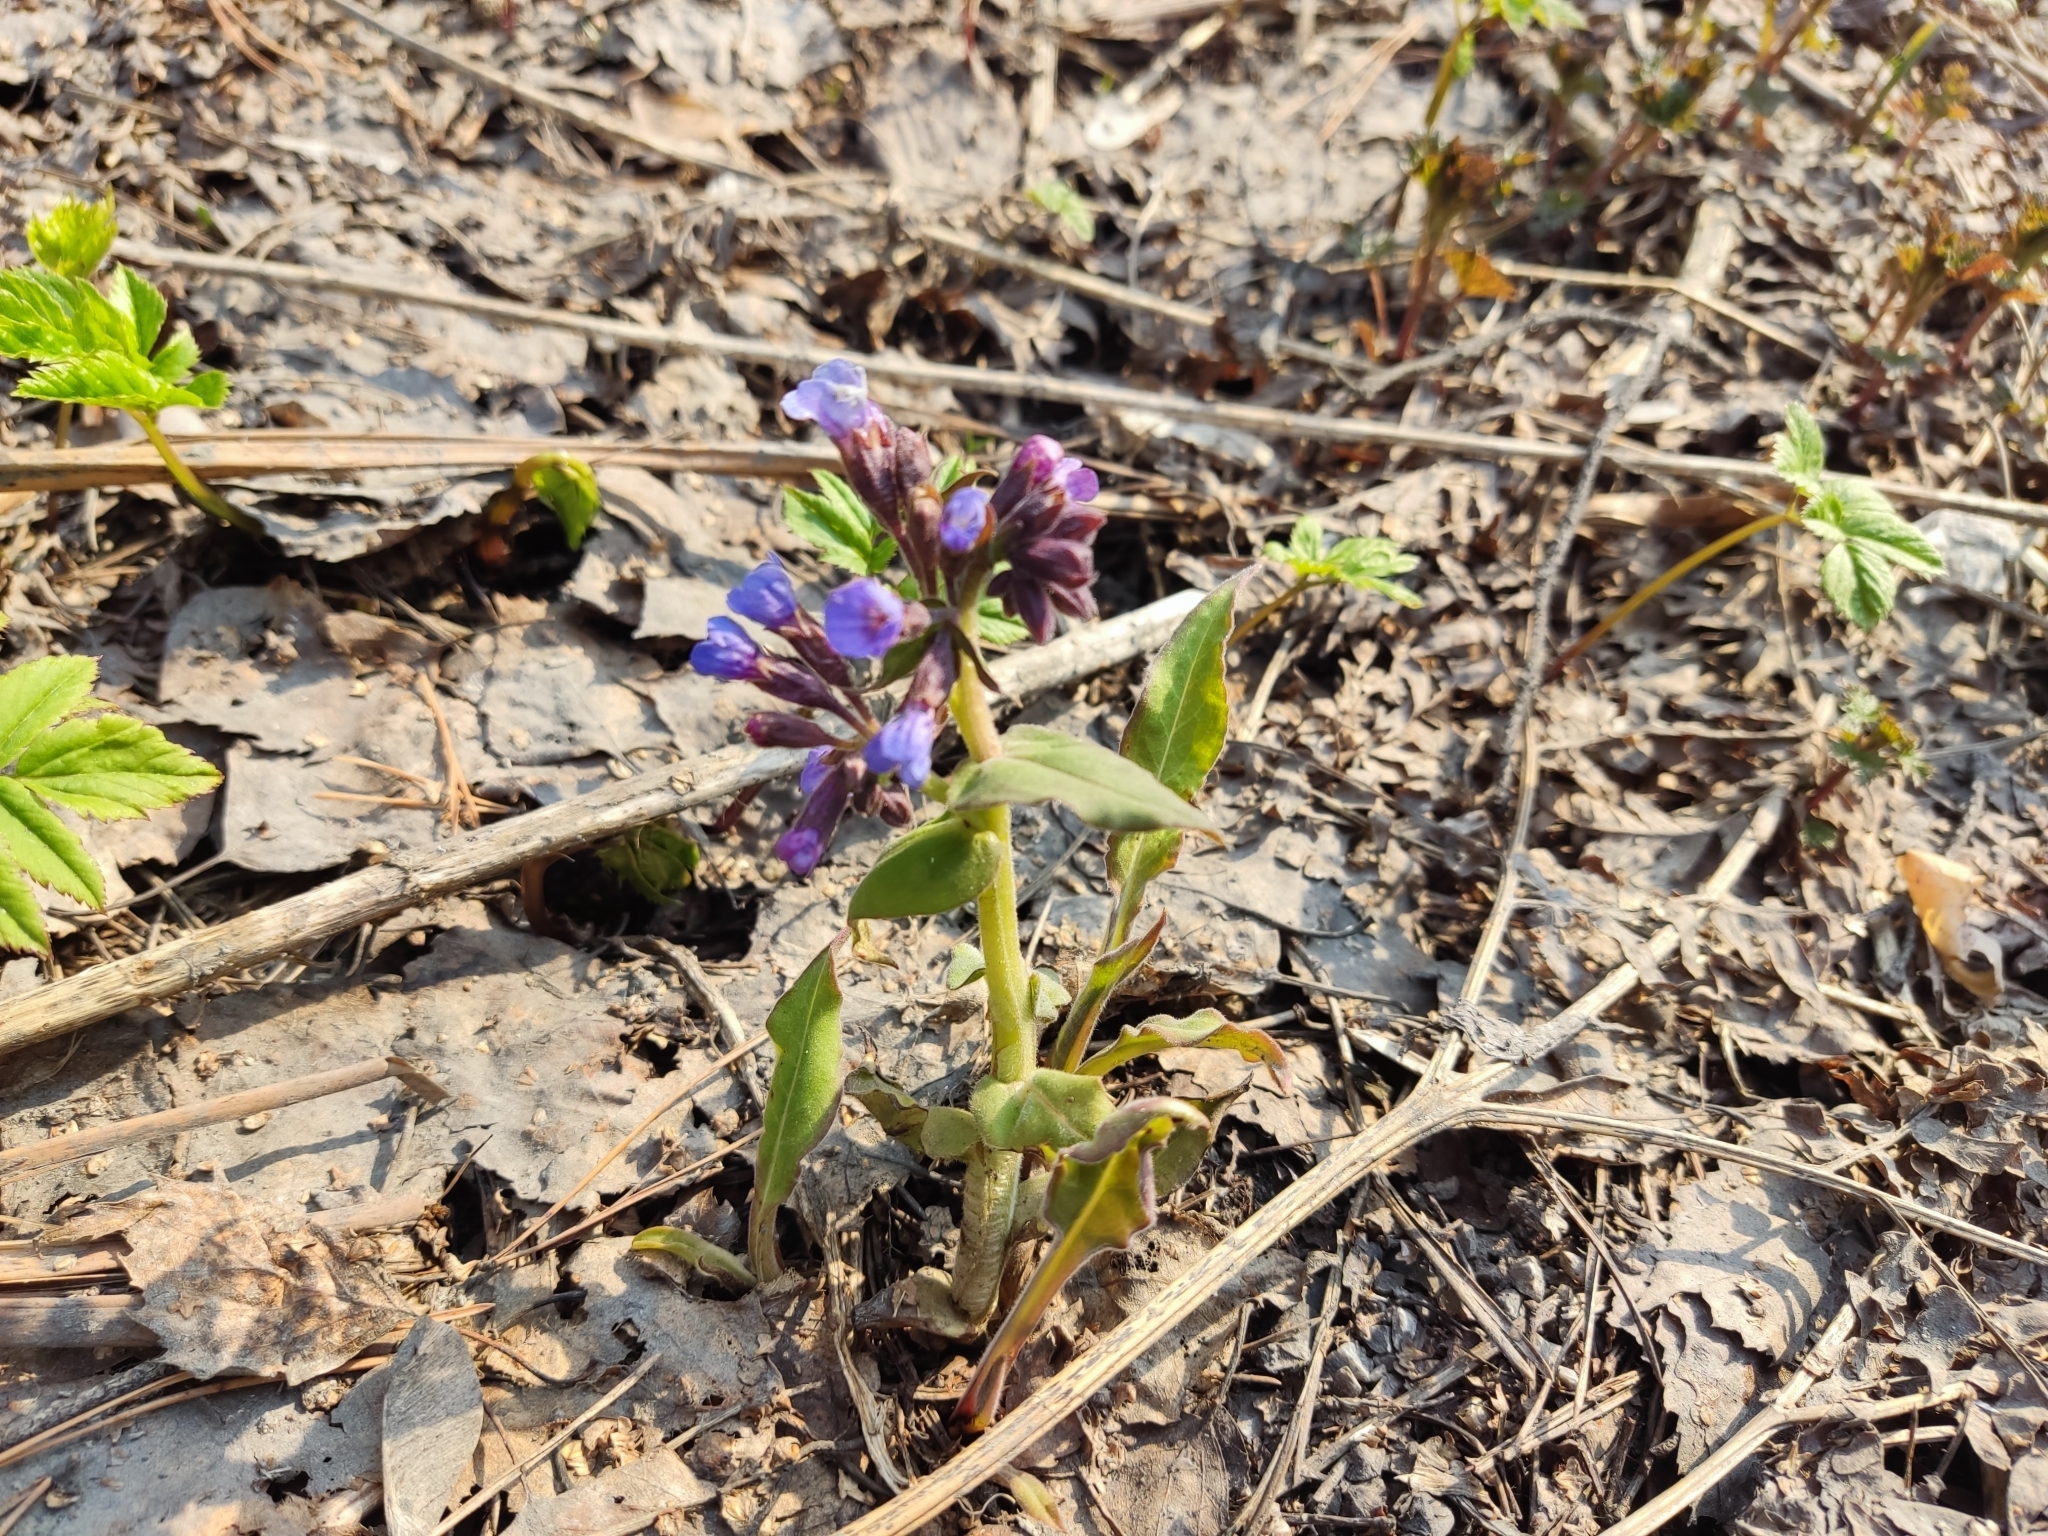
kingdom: Plantae
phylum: Tracheophyta
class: Magnoliopsida
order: Boraginales
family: Boraginaceae
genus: Pulmonaria
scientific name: Pulmonaria mollis
